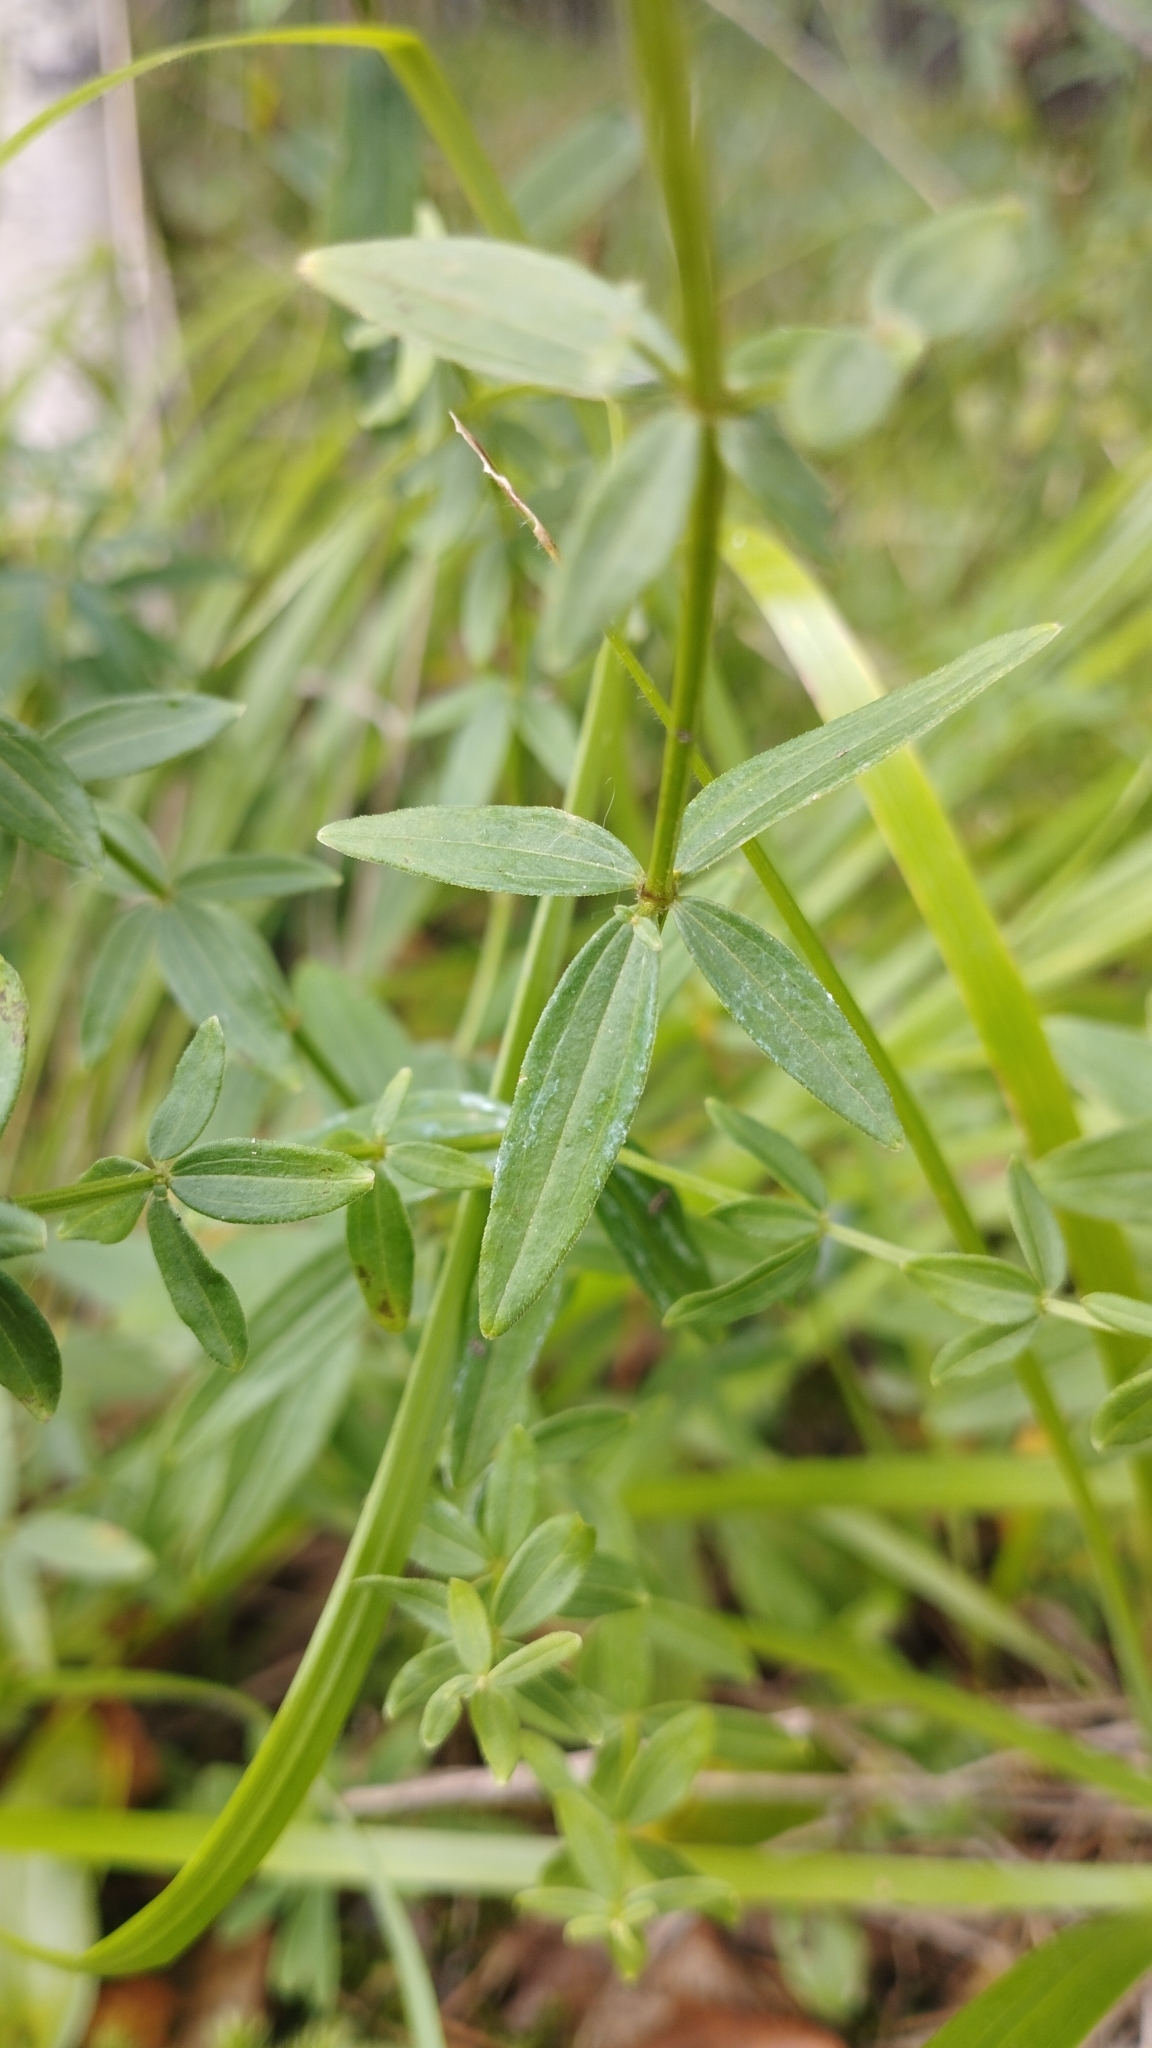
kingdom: Plantae
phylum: Tracheophyta
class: Magnoliopsida
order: Gentianales
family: Rubiaceae
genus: Galium
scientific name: Galium boreale
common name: Northern bedstraw
